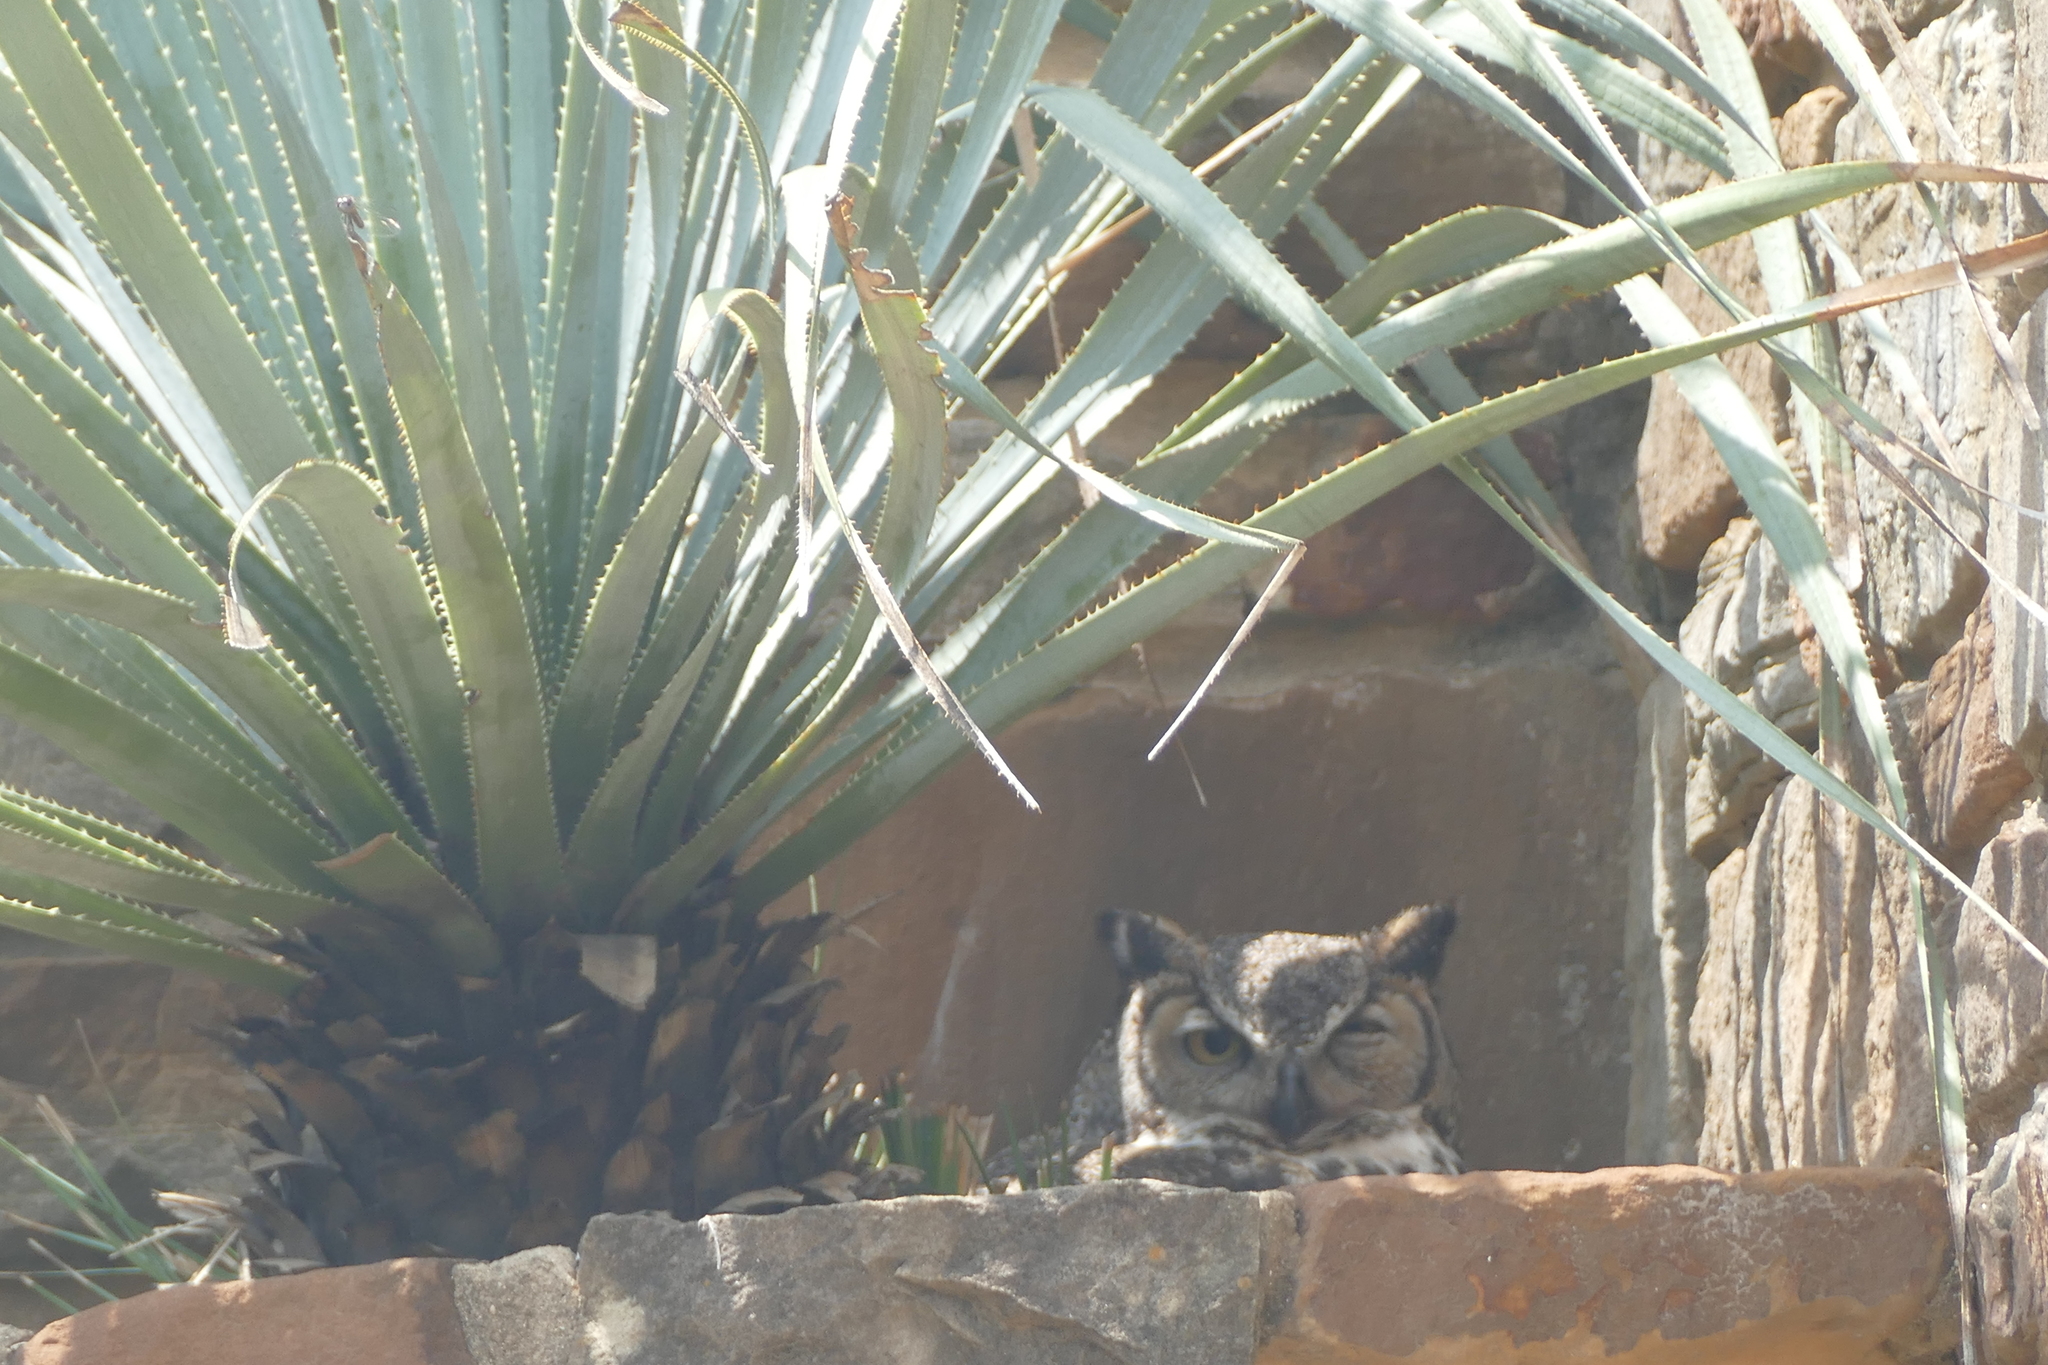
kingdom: Animalia
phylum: Chordata
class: Aves
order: Strigiformes
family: Strigidae
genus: Bubo
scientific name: Bubo virginianus
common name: Great horned owl
